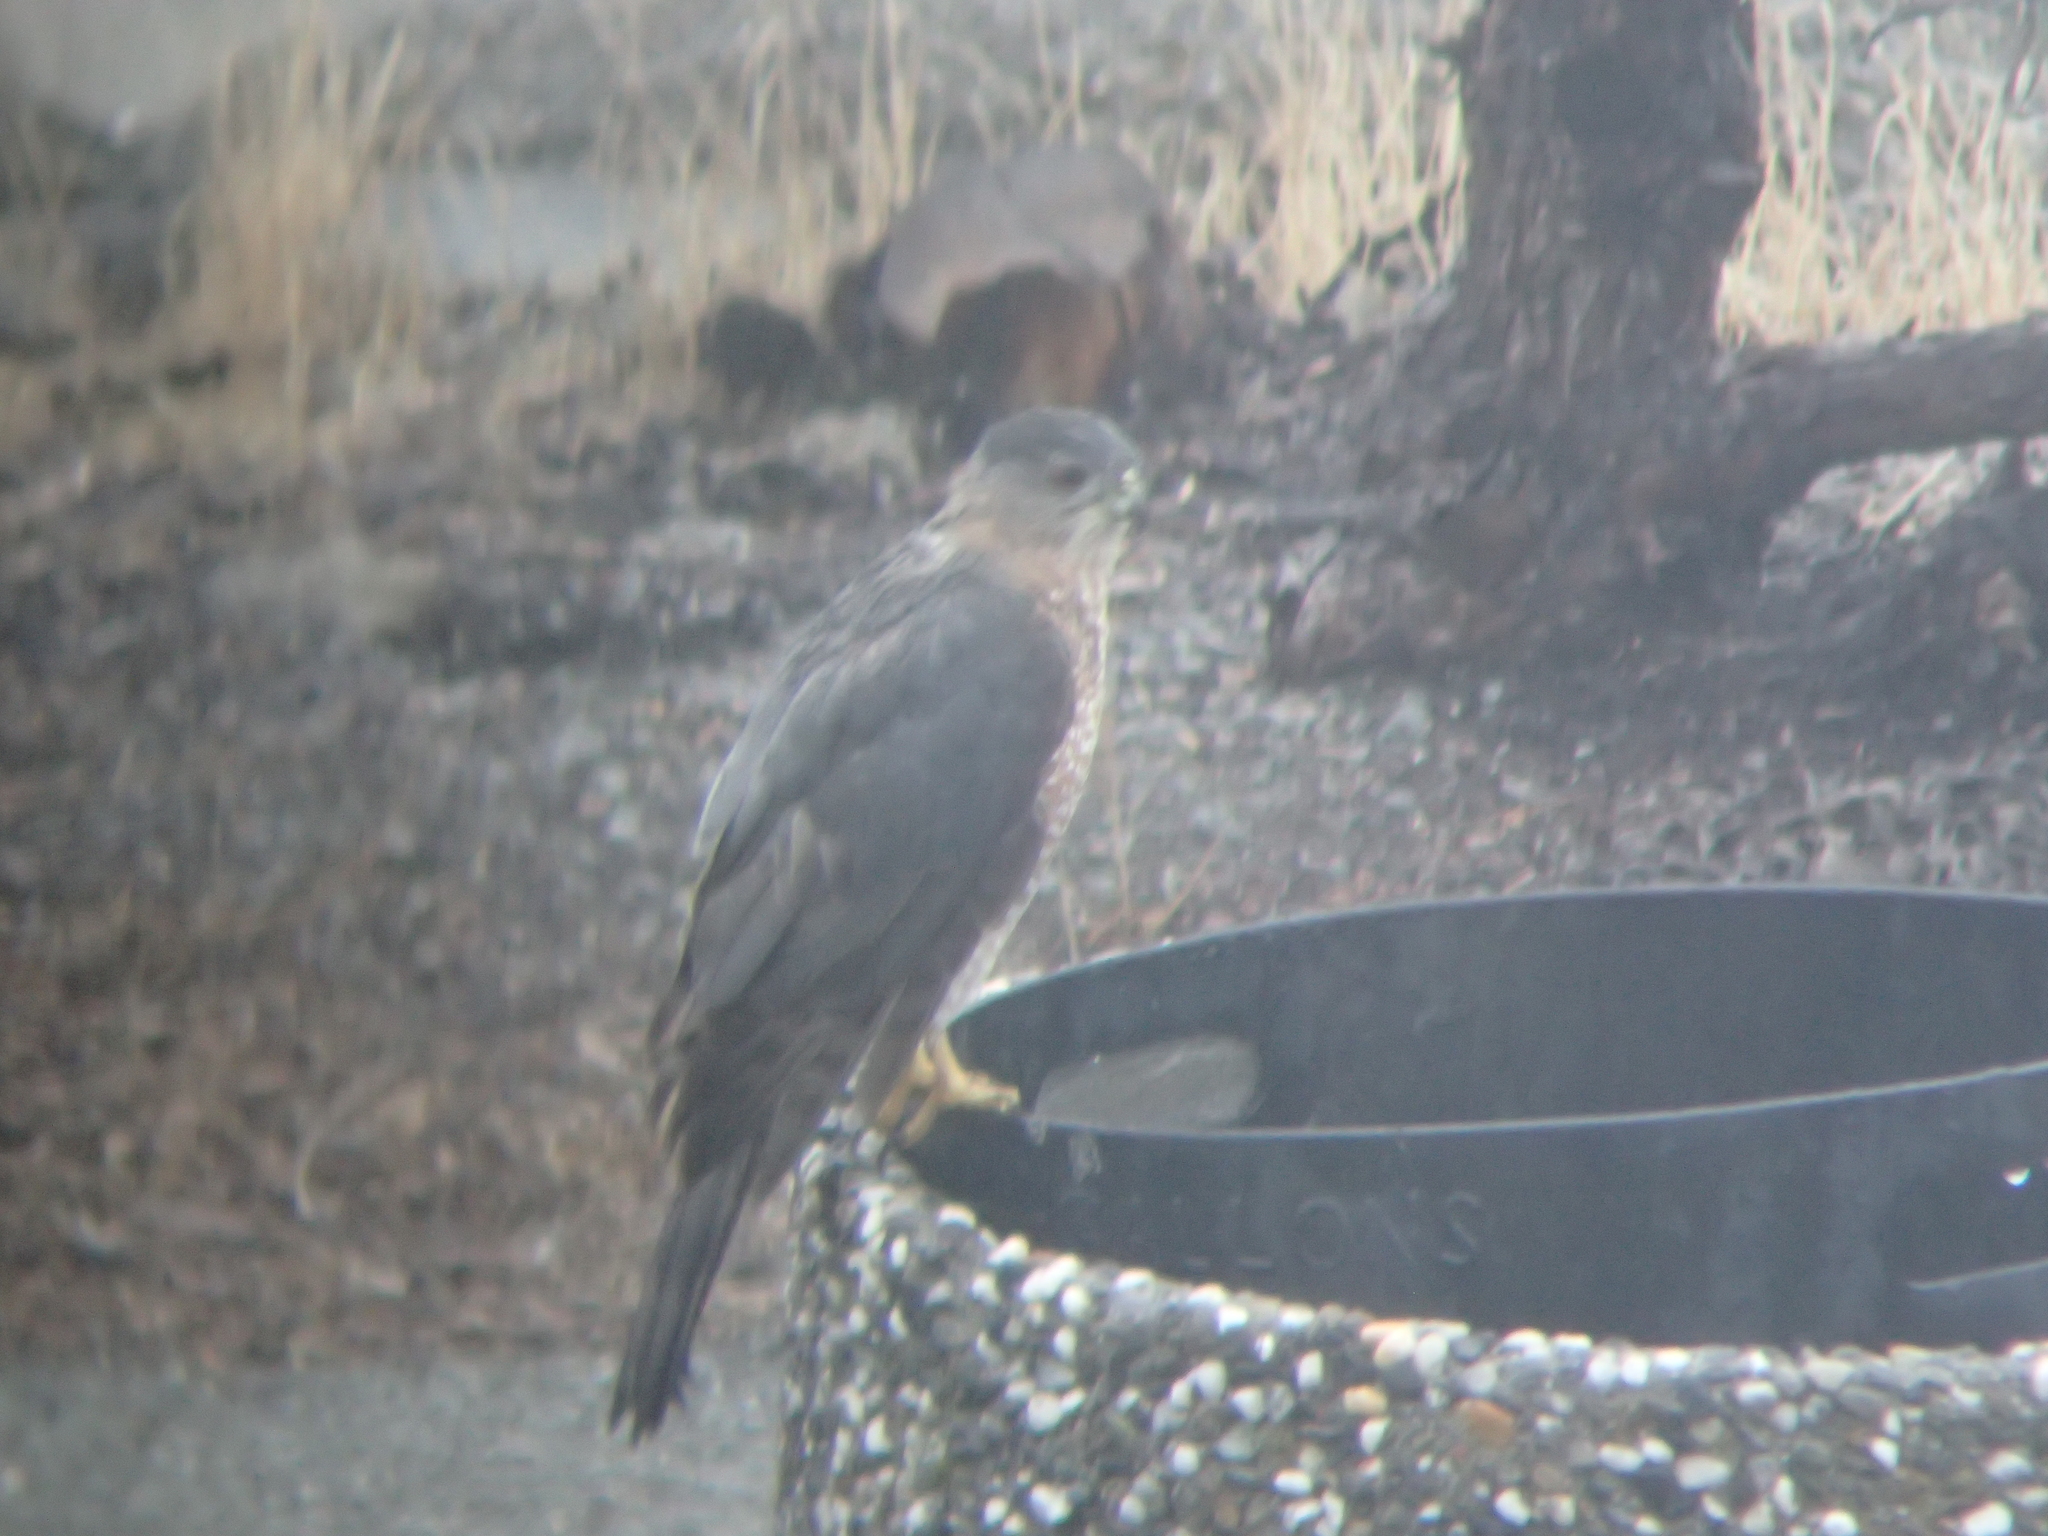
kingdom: Animalia
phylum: Chordata
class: Aves
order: Accipitriformes
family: Accipitridae
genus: Accipiter
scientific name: Accipiter cooperii
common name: Cooper's hawk
